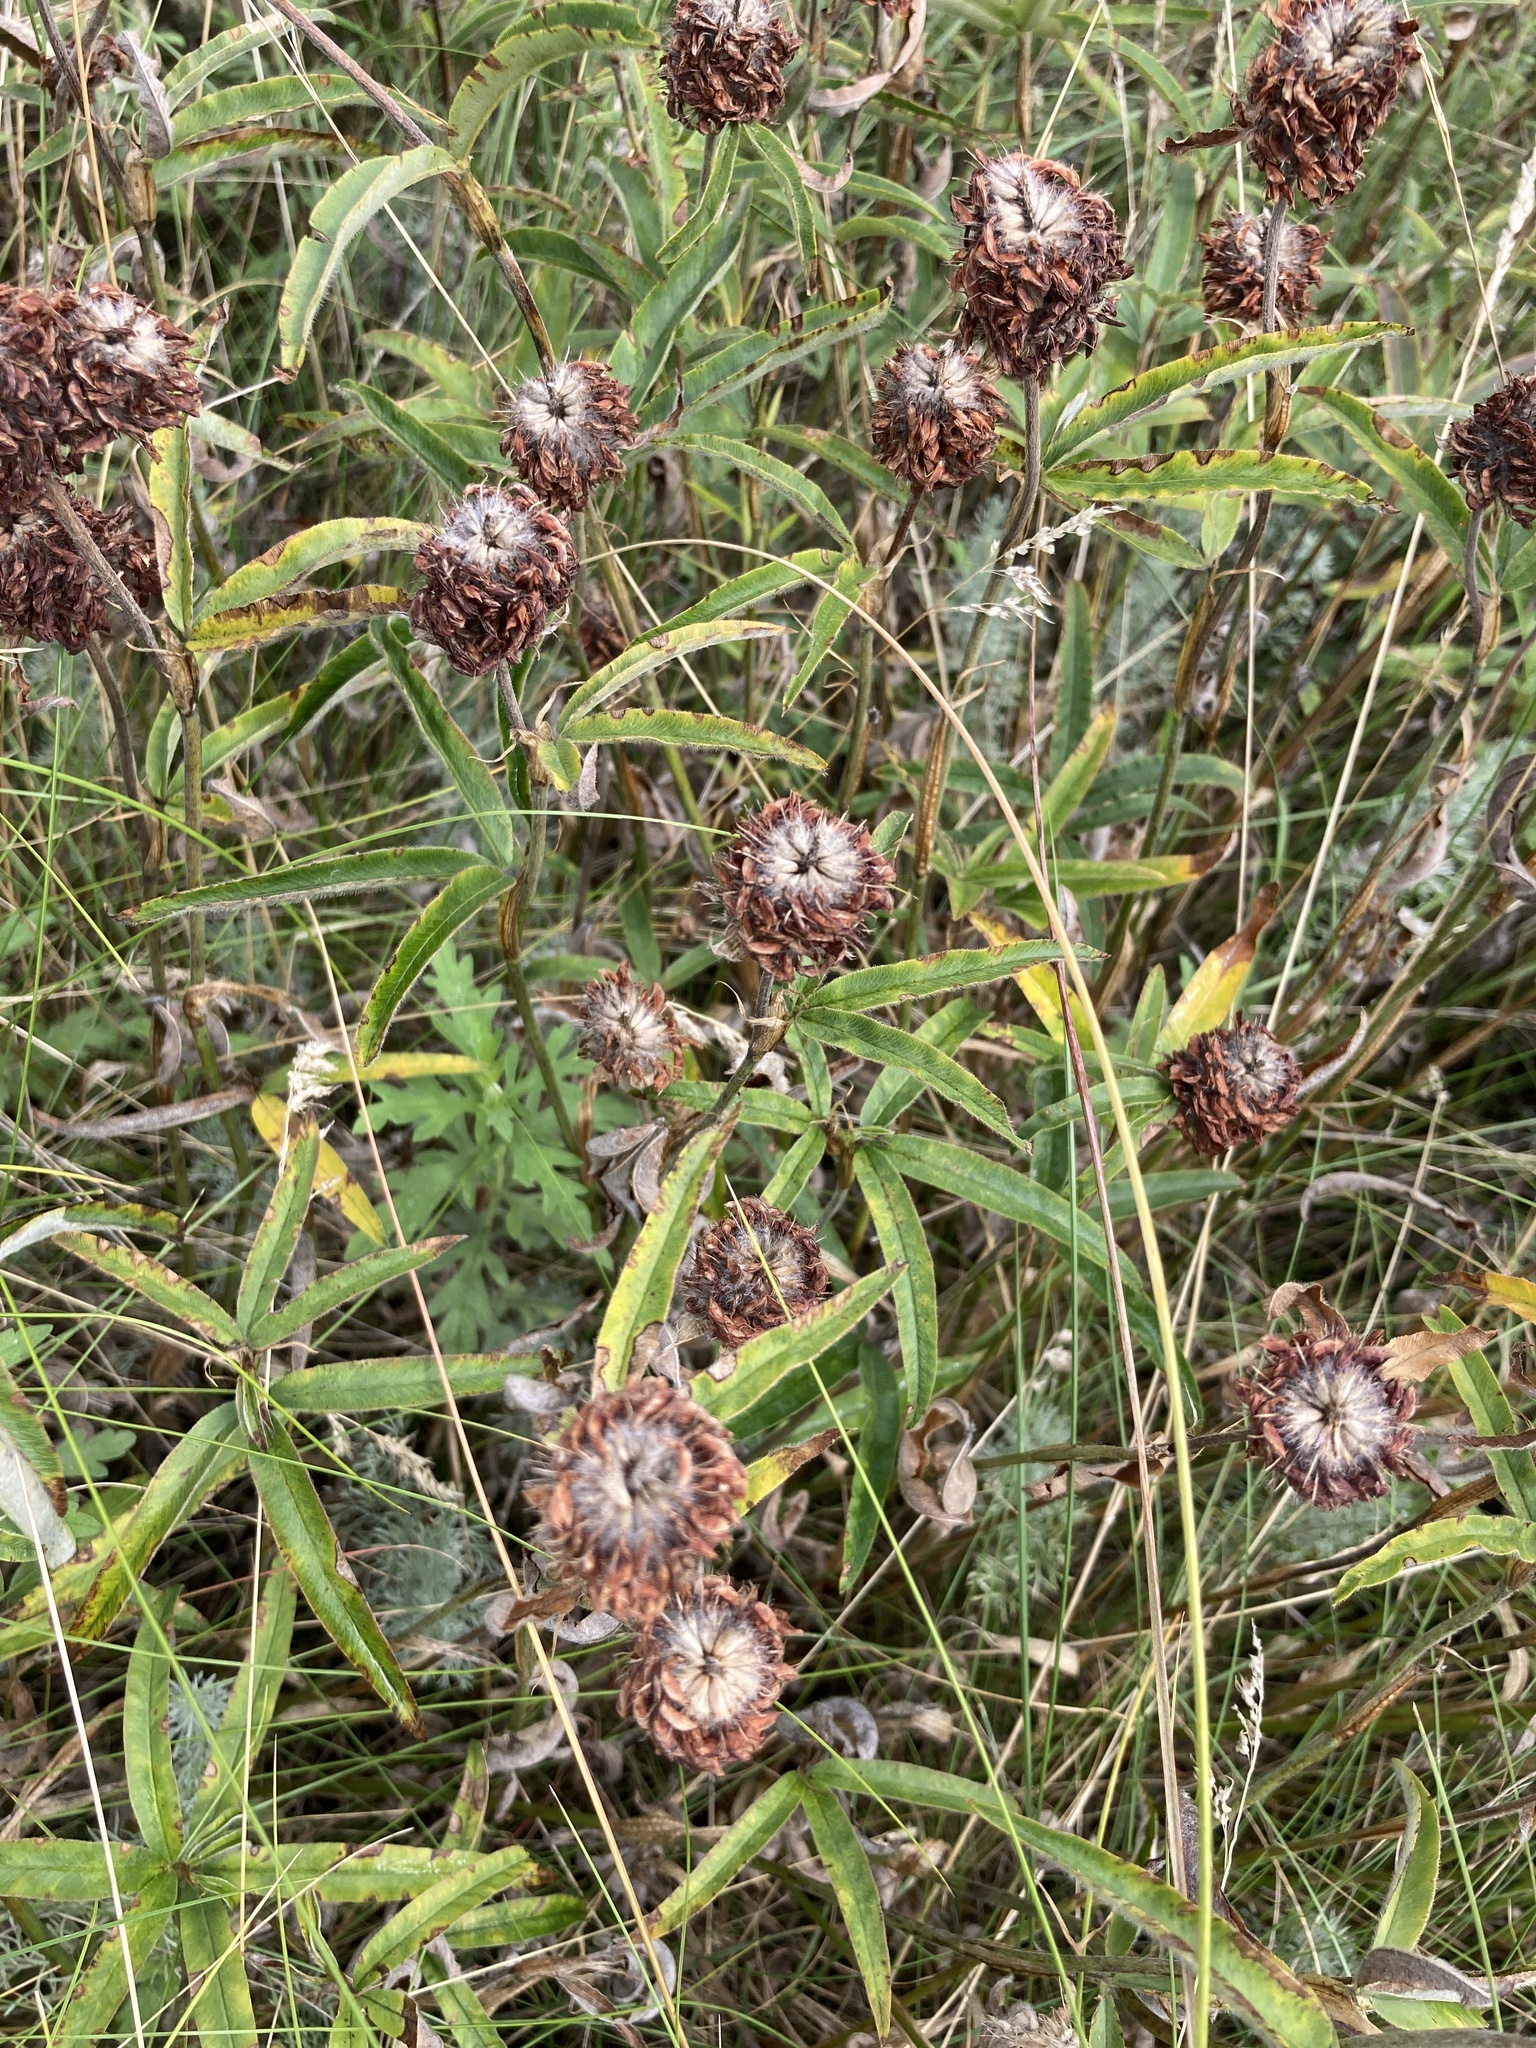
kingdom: Plantae
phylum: Tracheophyta
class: Magnoliopsida
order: Fabales
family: Fabaceae
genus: Trifolium
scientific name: Trifolium alpestre
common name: Owl-head clover
